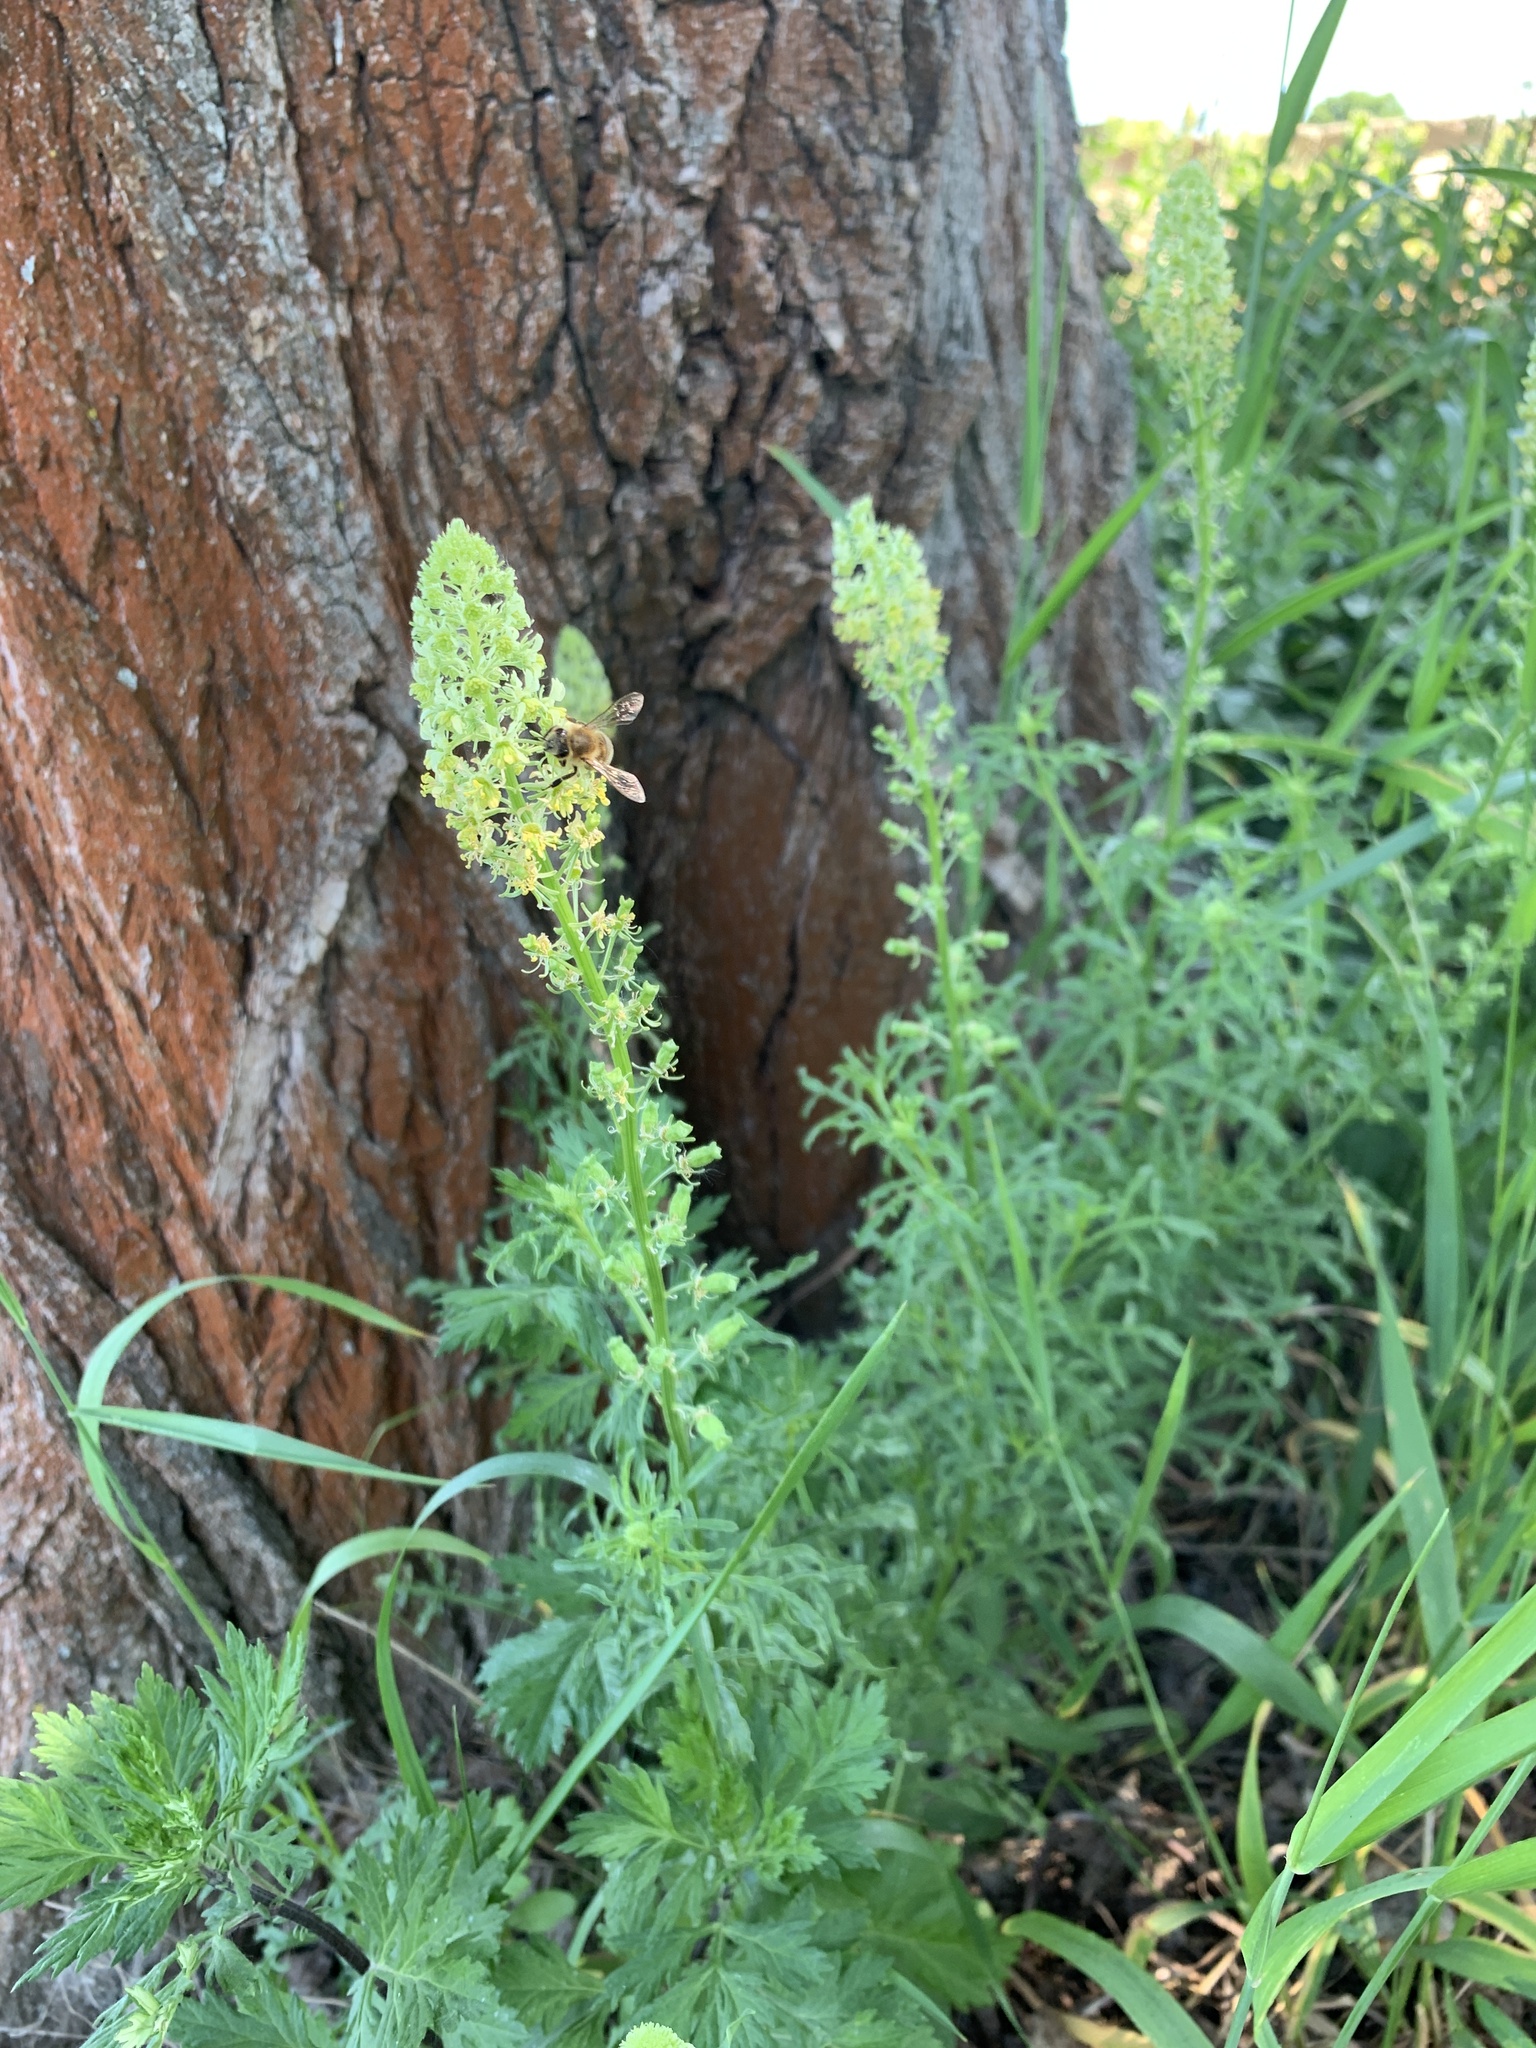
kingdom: Plantae
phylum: Tracheophyta
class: Magnoliopsida
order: Brassicales
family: Resedaceae
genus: Reseda
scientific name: Reseda lutea
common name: Wild mignonette
